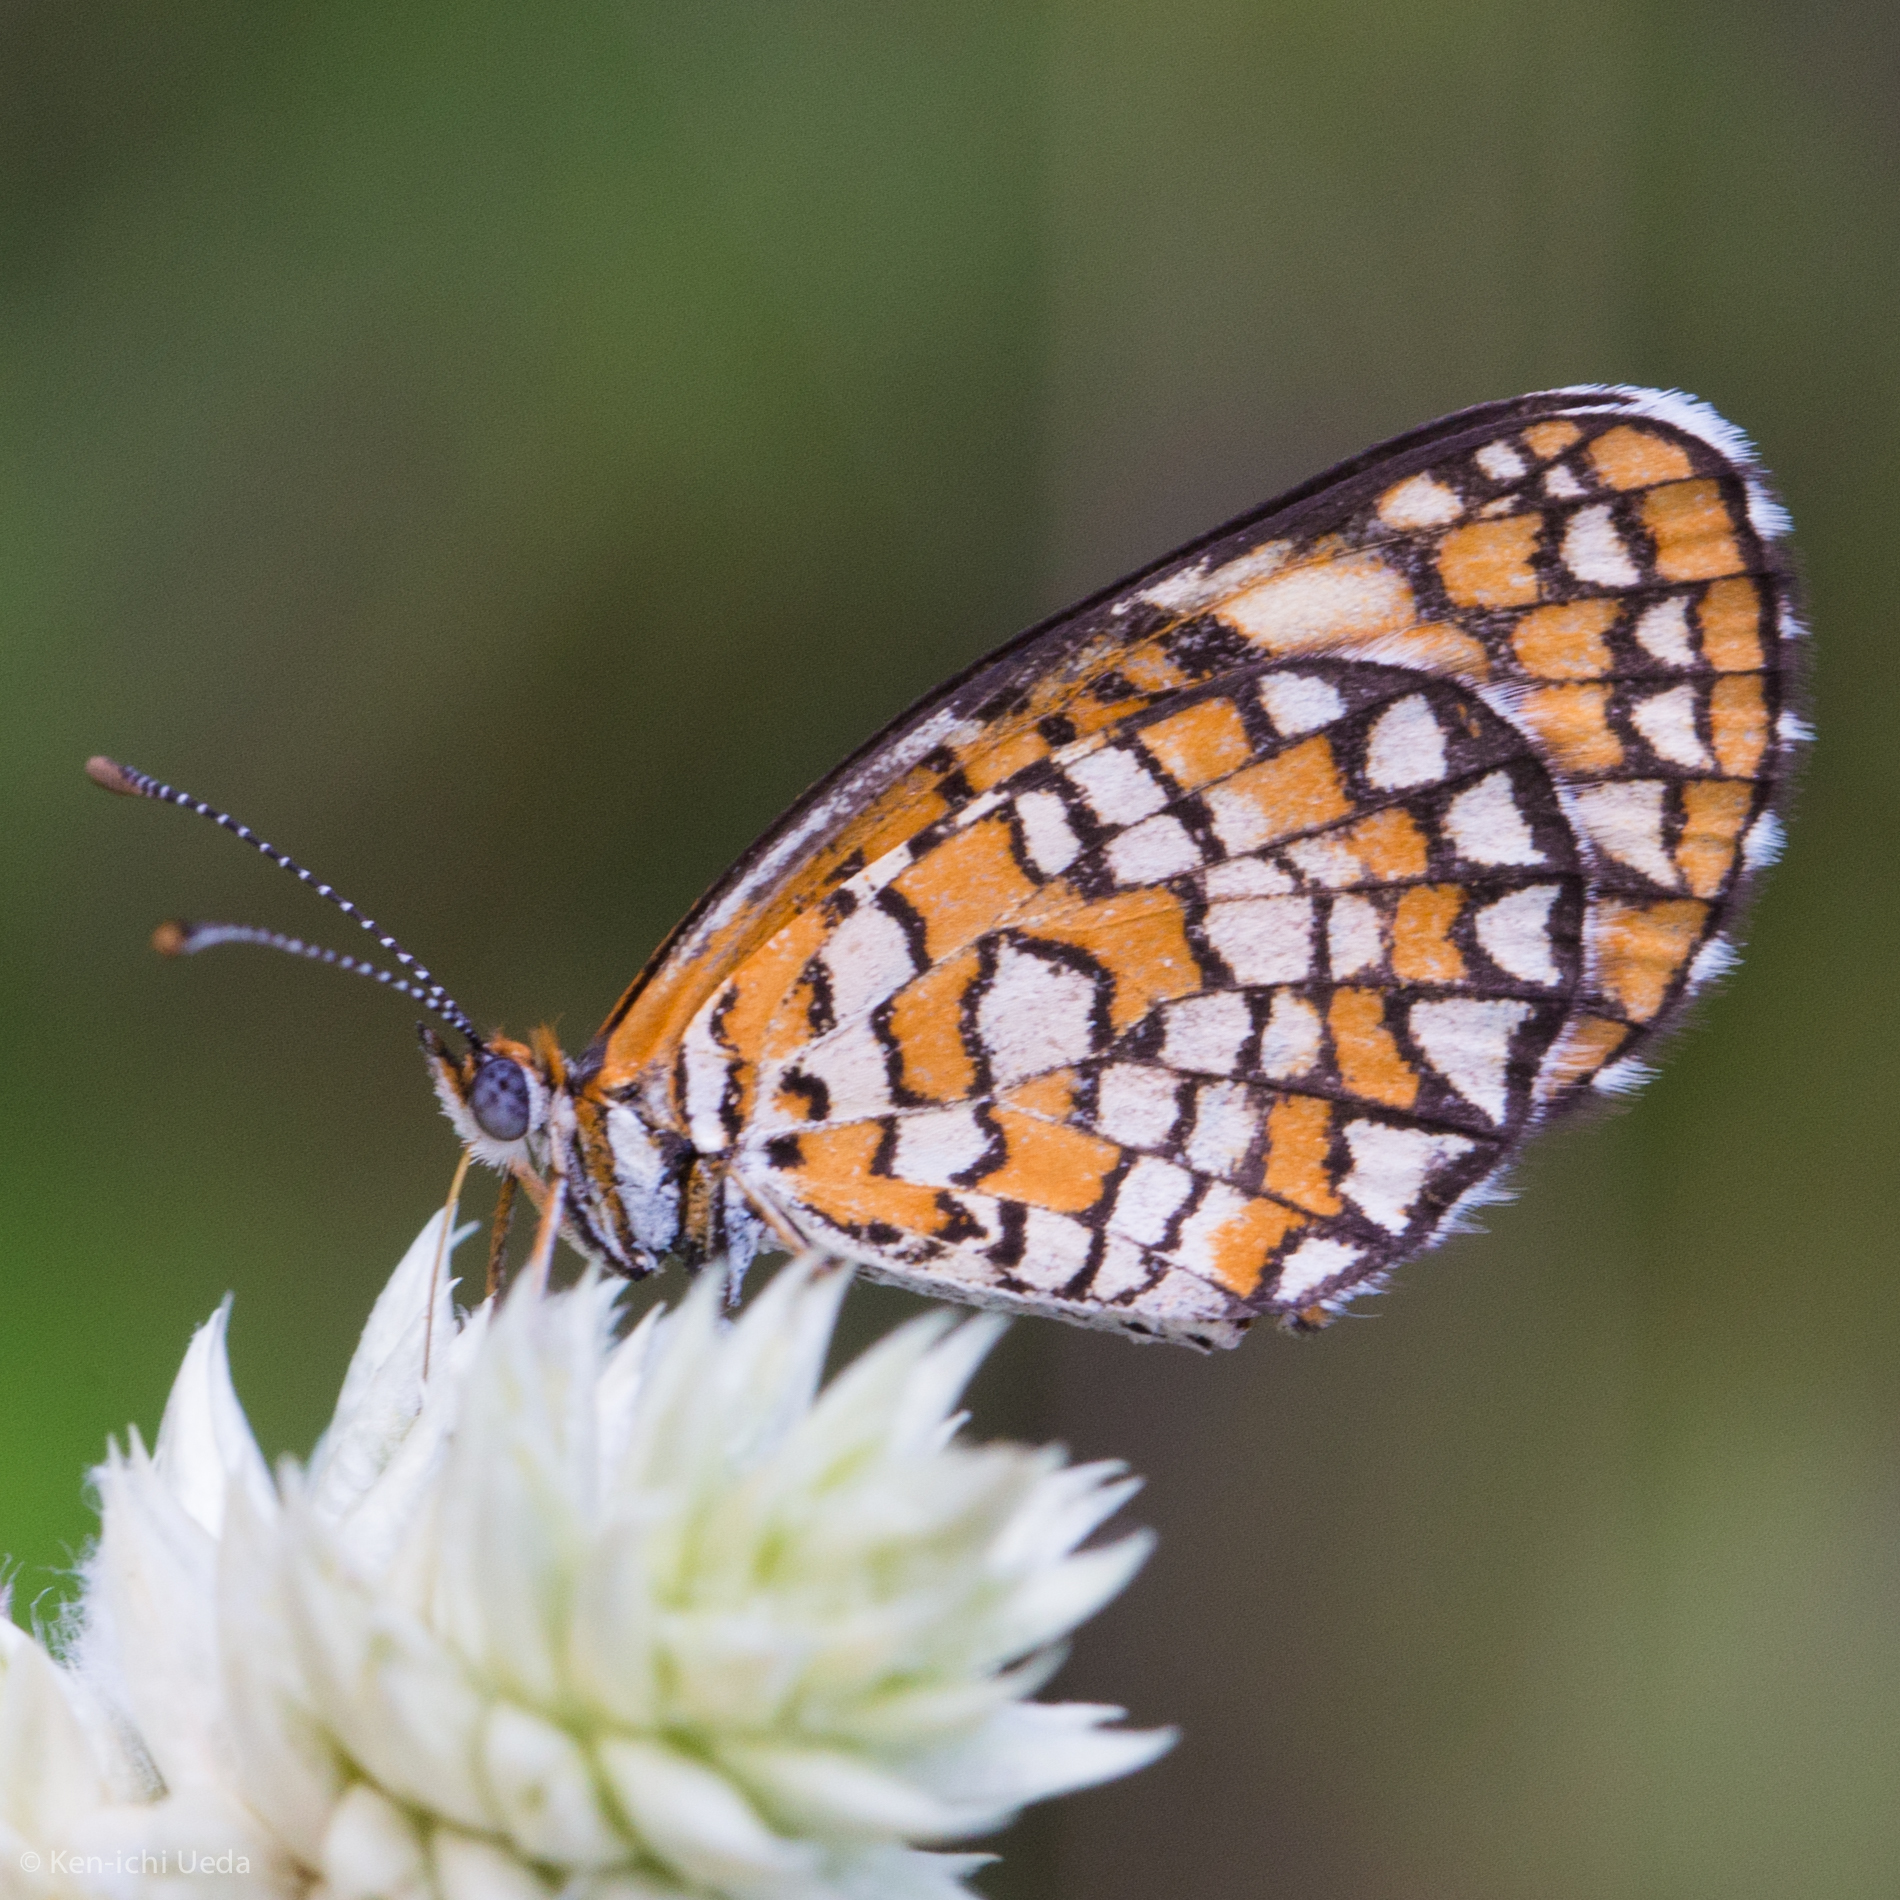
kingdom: Animalia
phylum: Arthropoda
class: Insecta
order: Lepidoptera
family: Nymphalidae
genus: Dymasia
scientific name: Dymasia dymas
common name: Tiny checkerspot
